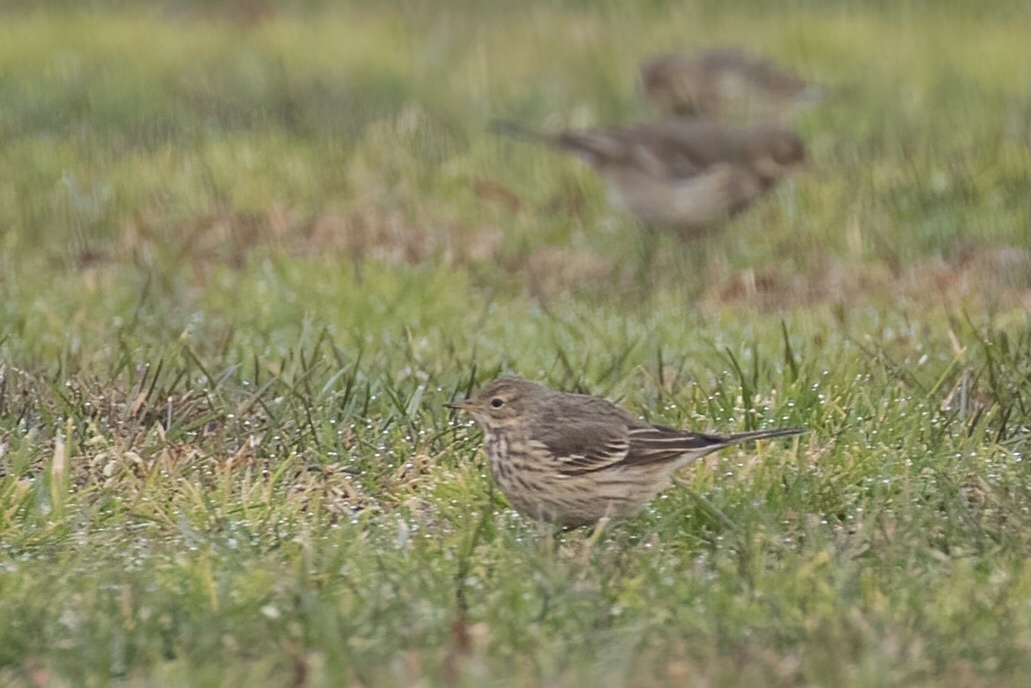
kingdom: Animalia
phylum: Chordata
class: Aves
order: Passeriformes
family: Motacillidae
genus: Anthus
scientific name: Anthus rubescens
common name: Buff-bellied pipit
